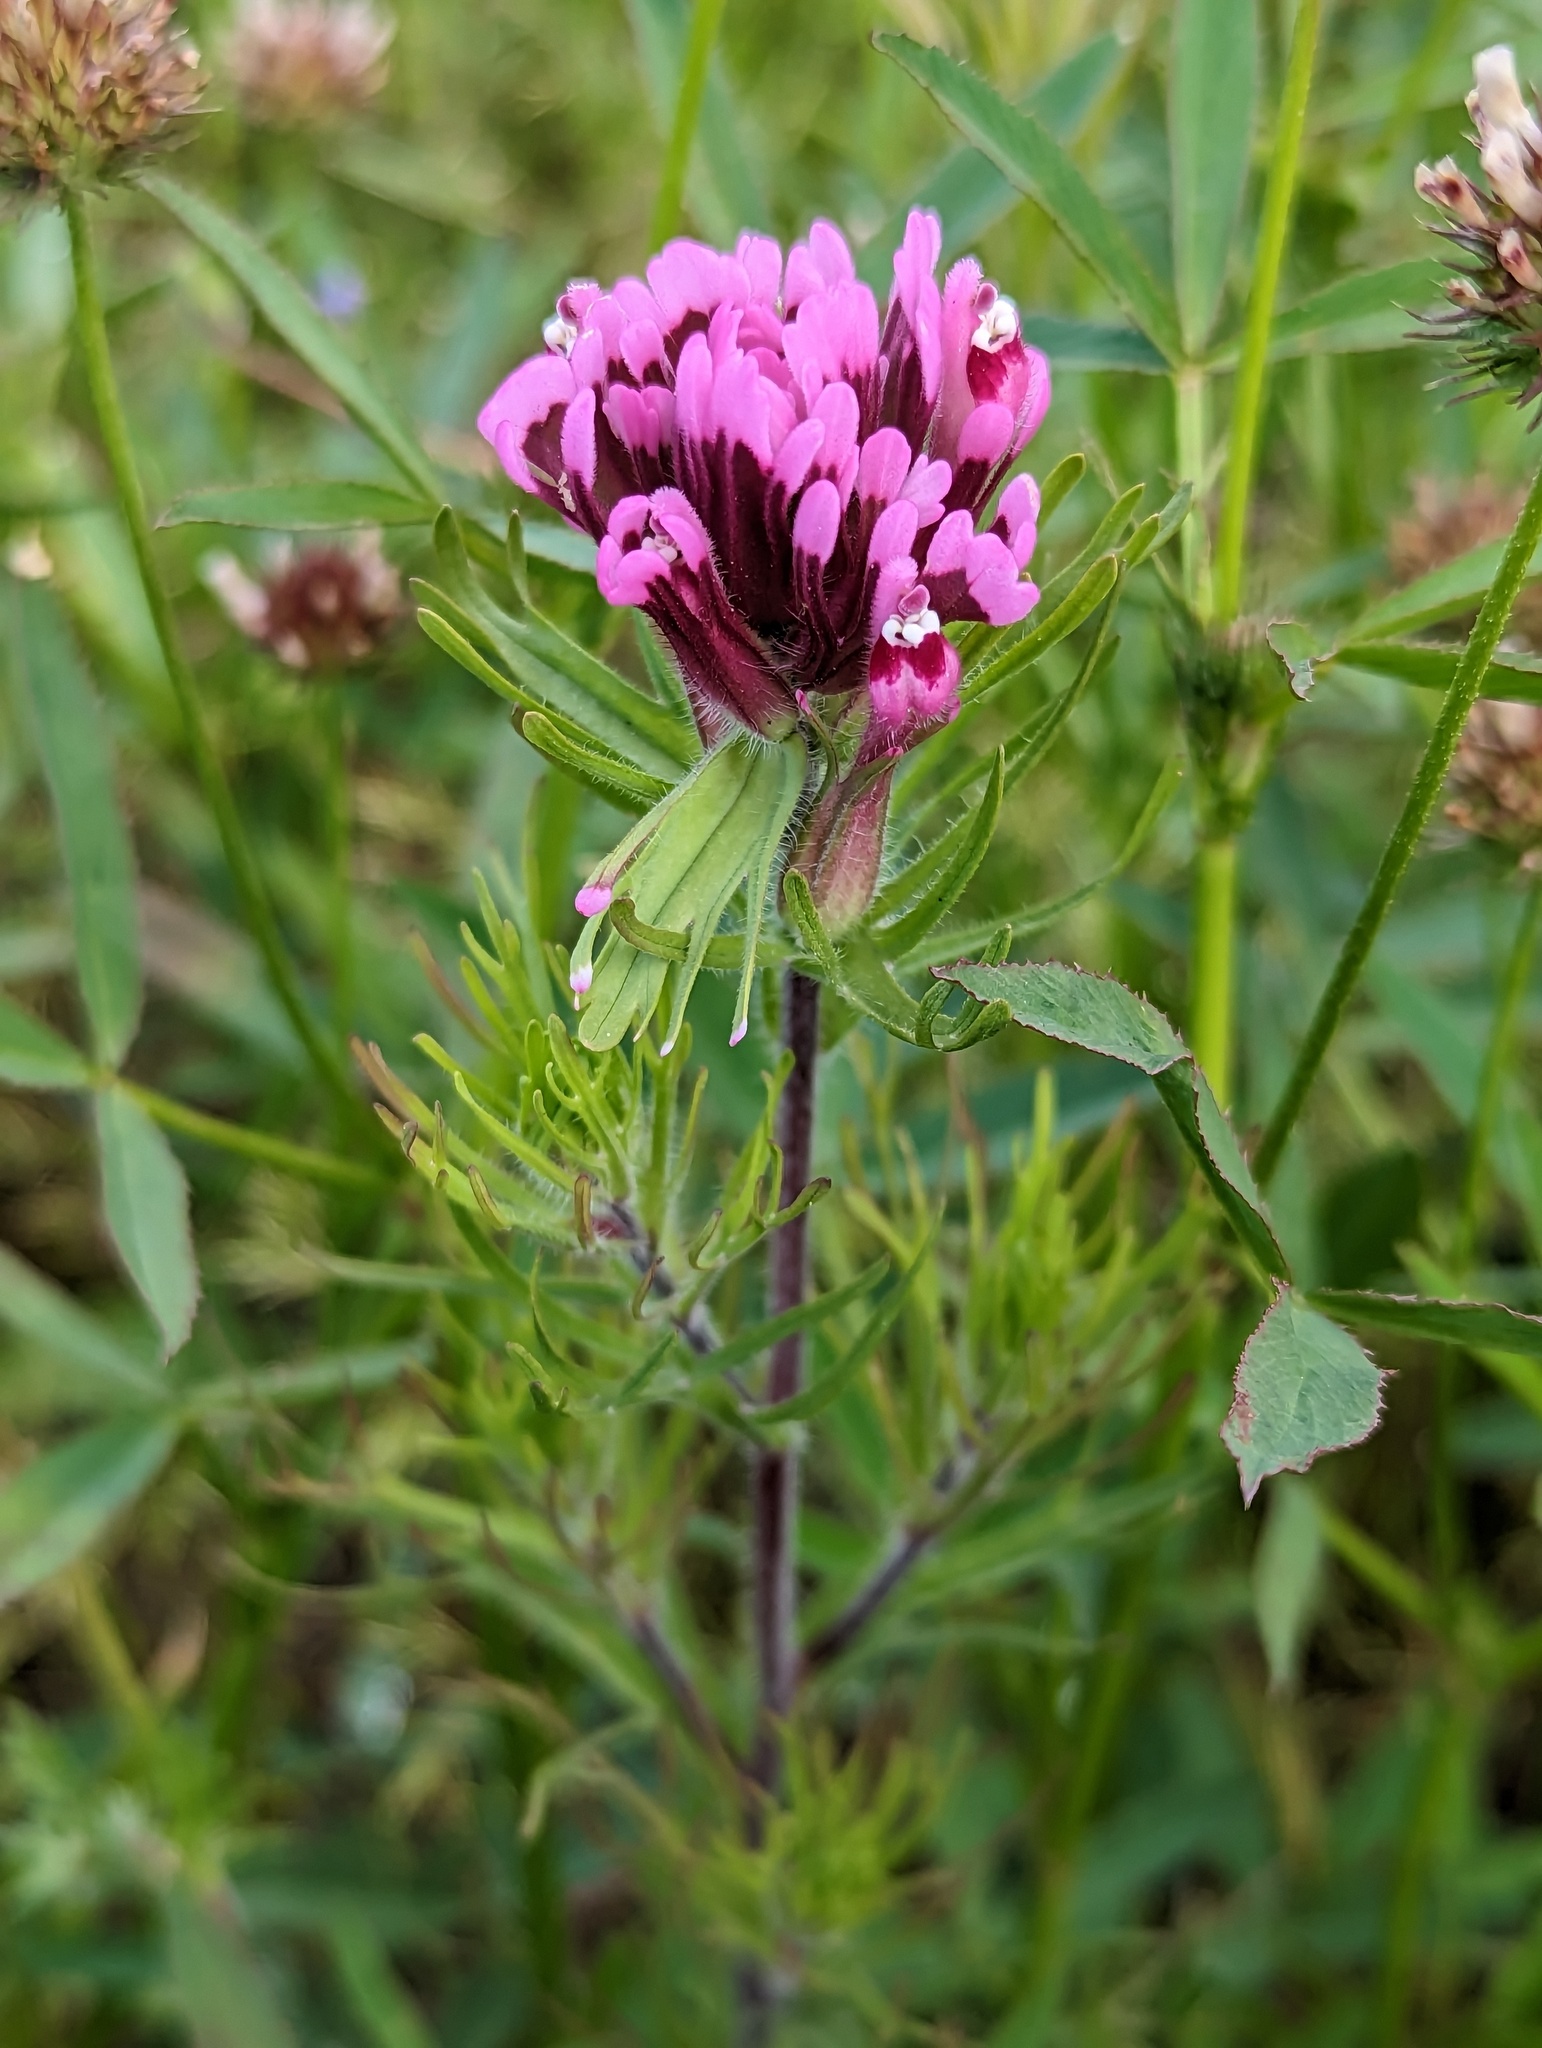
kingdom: Plantae
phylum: Tracheophyta
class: Magnoliopsida
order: Lamiales
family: Orobanchaceae
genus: Castilleja
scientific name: Castilleja exserta
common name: Purple owl-clover
